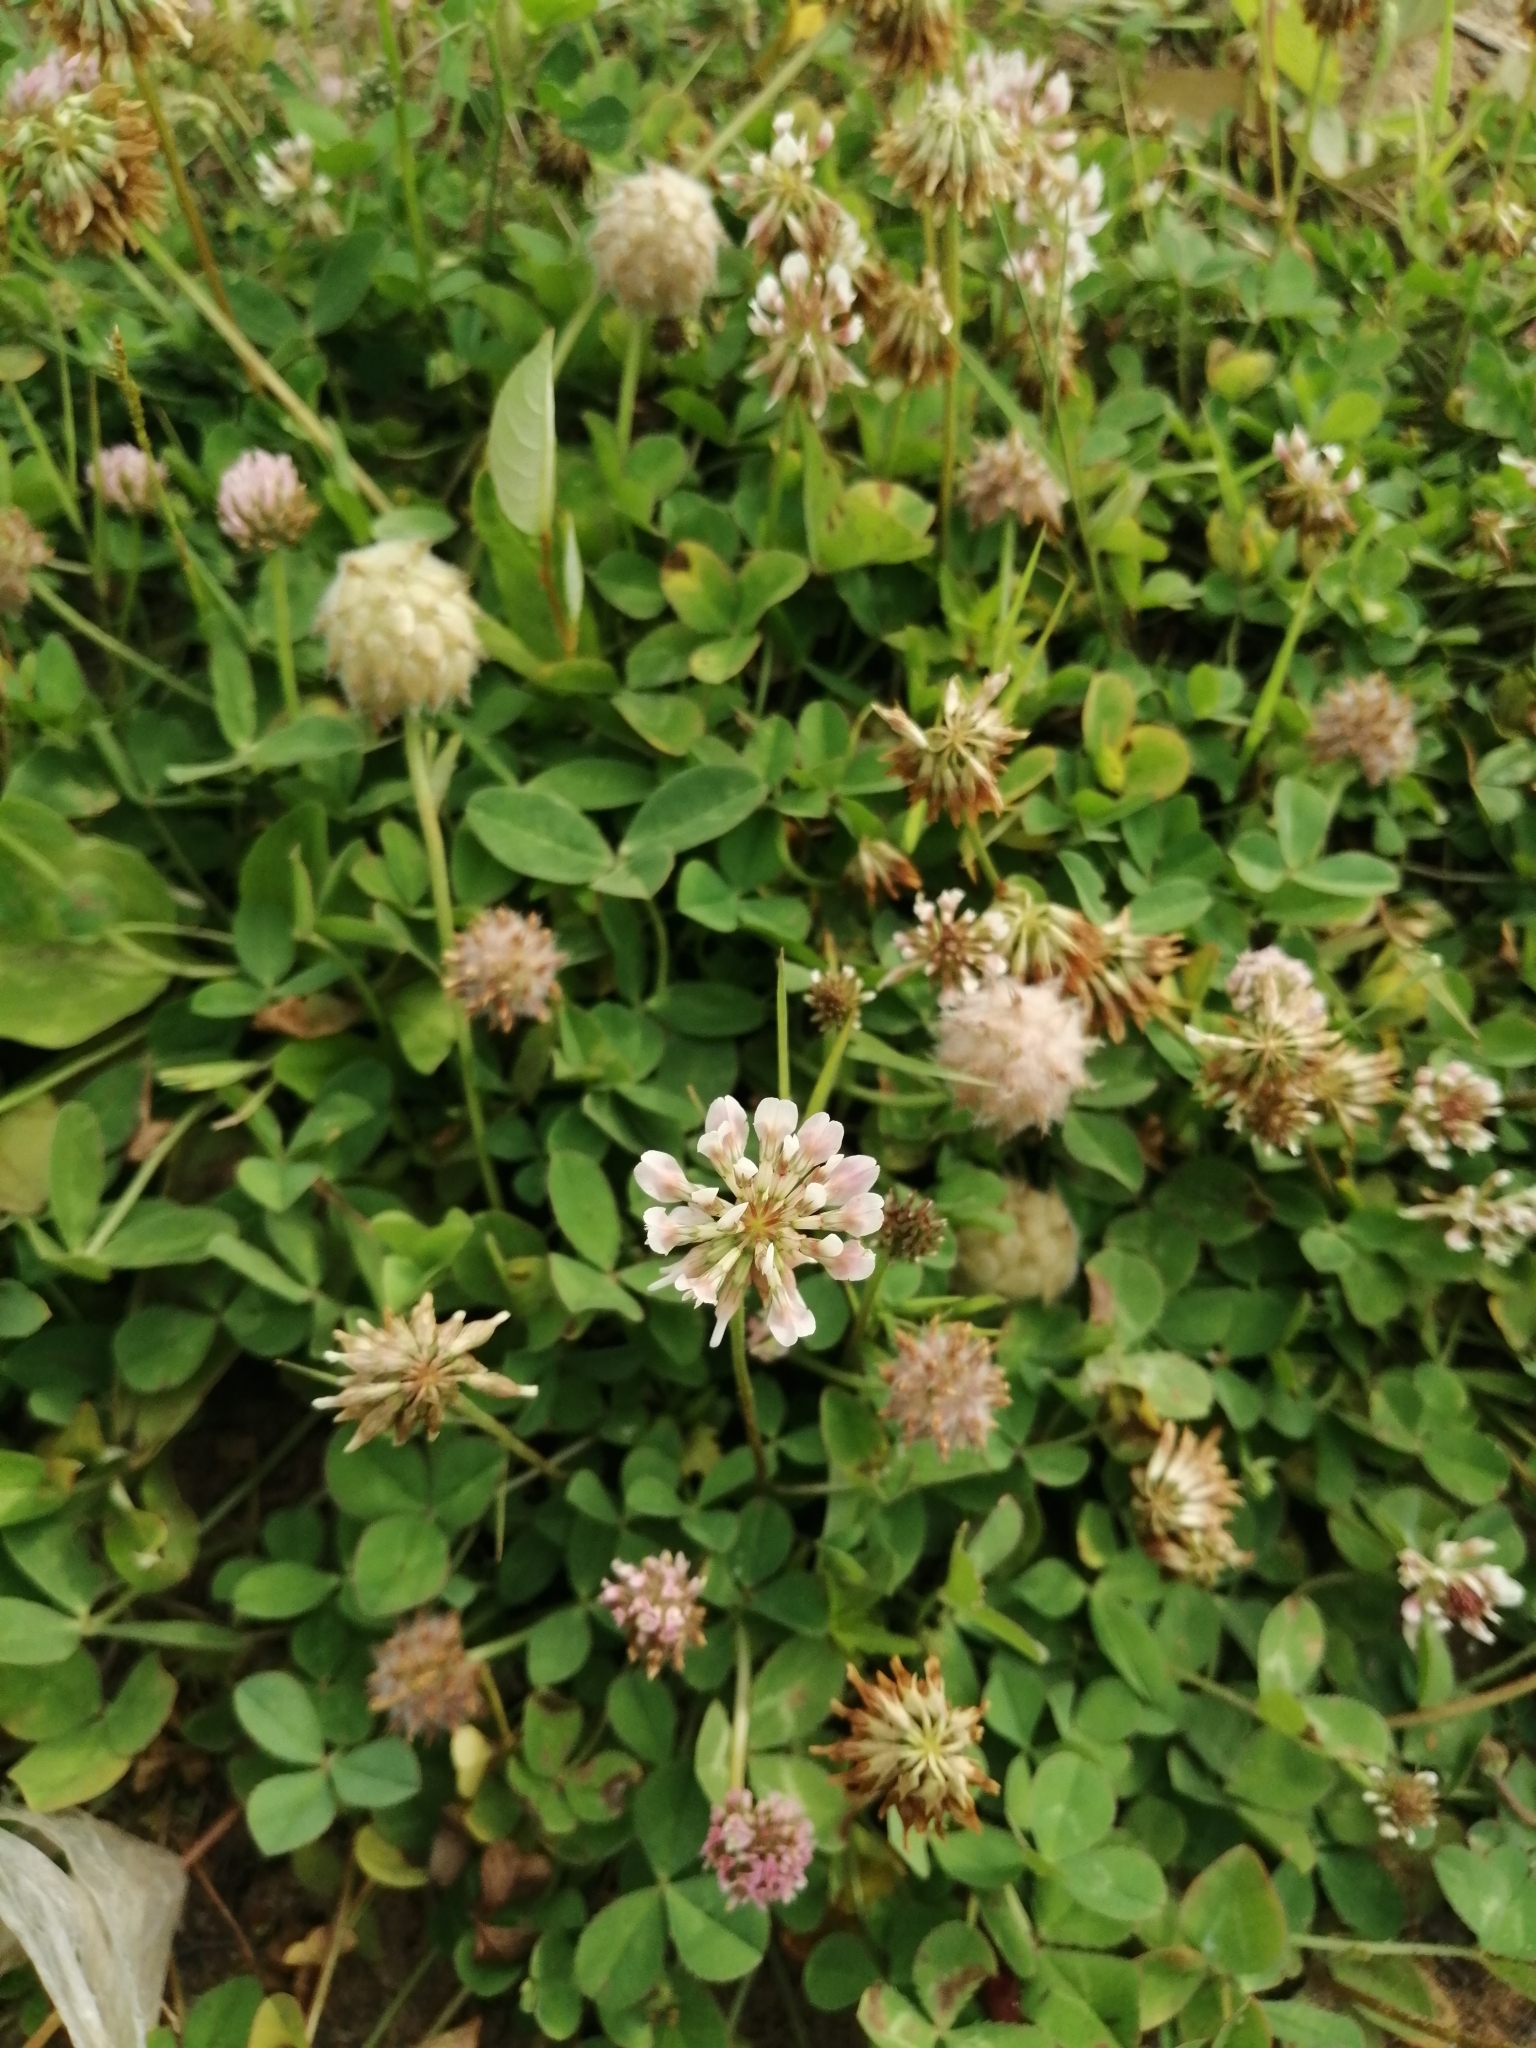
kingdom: Plantae
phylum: Tracheophyta
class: Magnoliopsida
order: Fabales
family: Fabaceae
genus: Trifolium
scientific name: Trifolium fragiferum
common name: Strawberry clover
